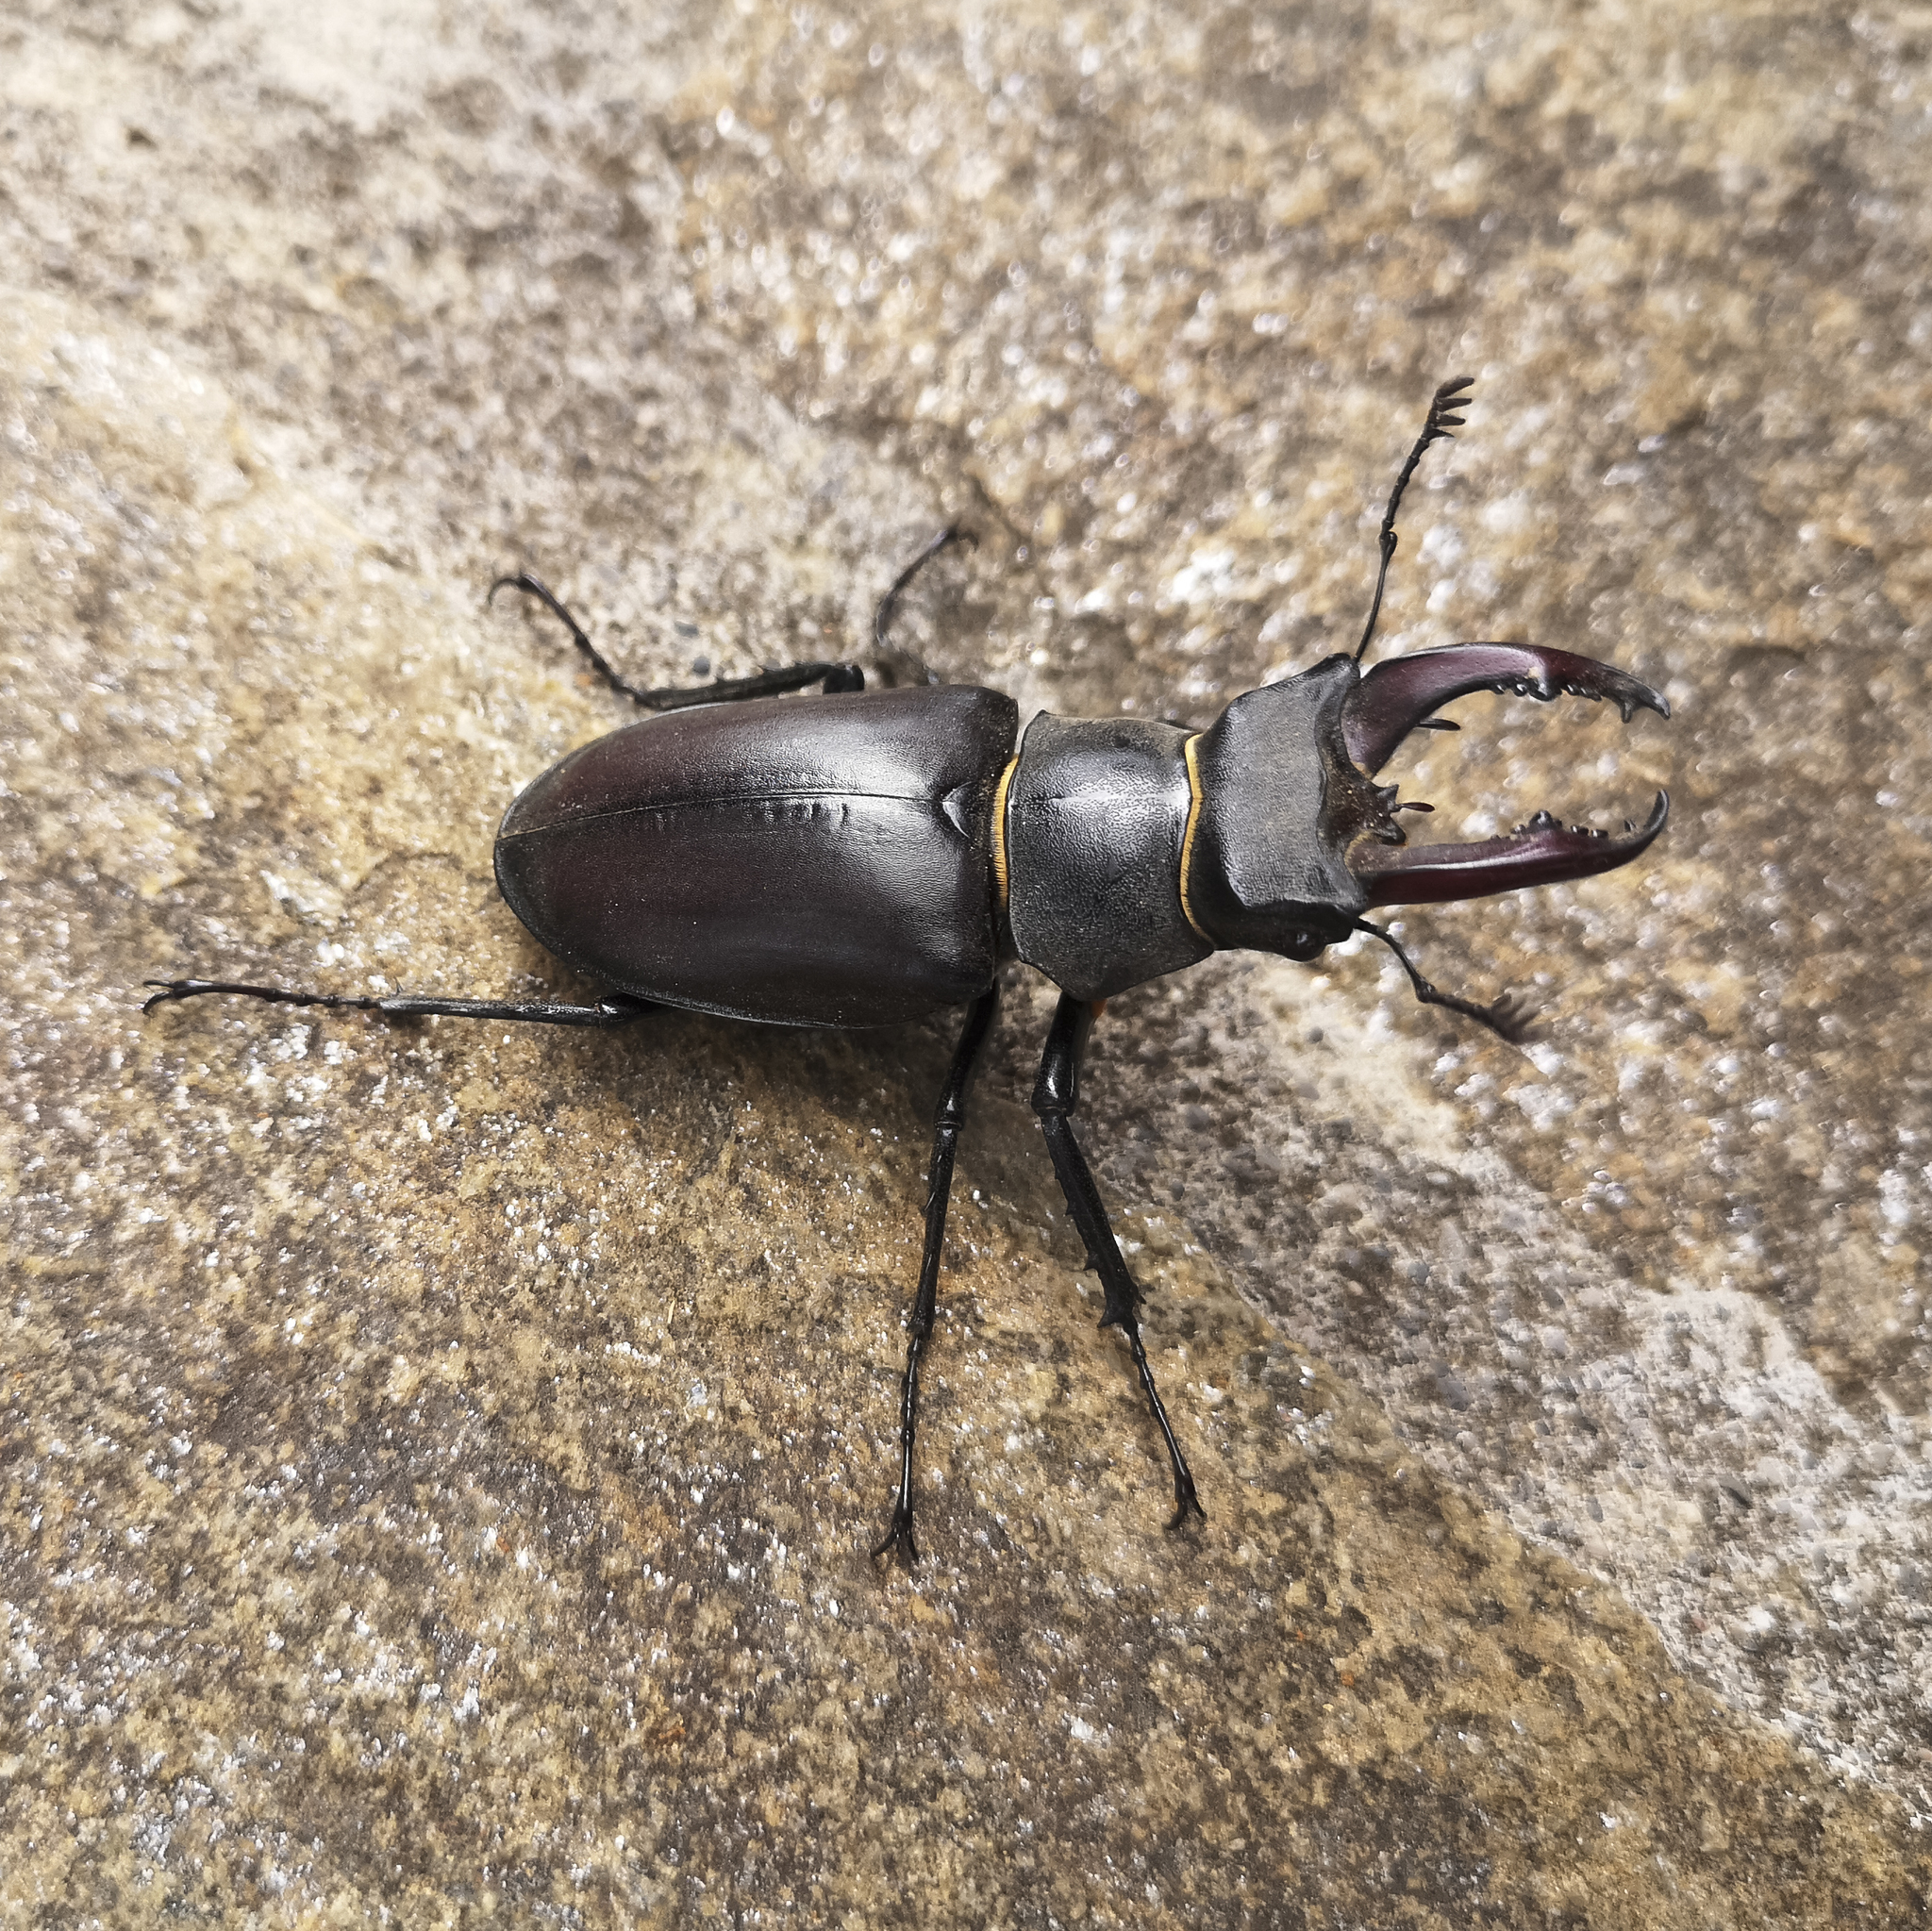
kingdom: Animalia
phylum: Arthropoda
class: Insecta
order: Coleoptera
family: Lucanidae
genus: Lucanus
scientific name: Lucanus cervus
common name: Stag beetle
